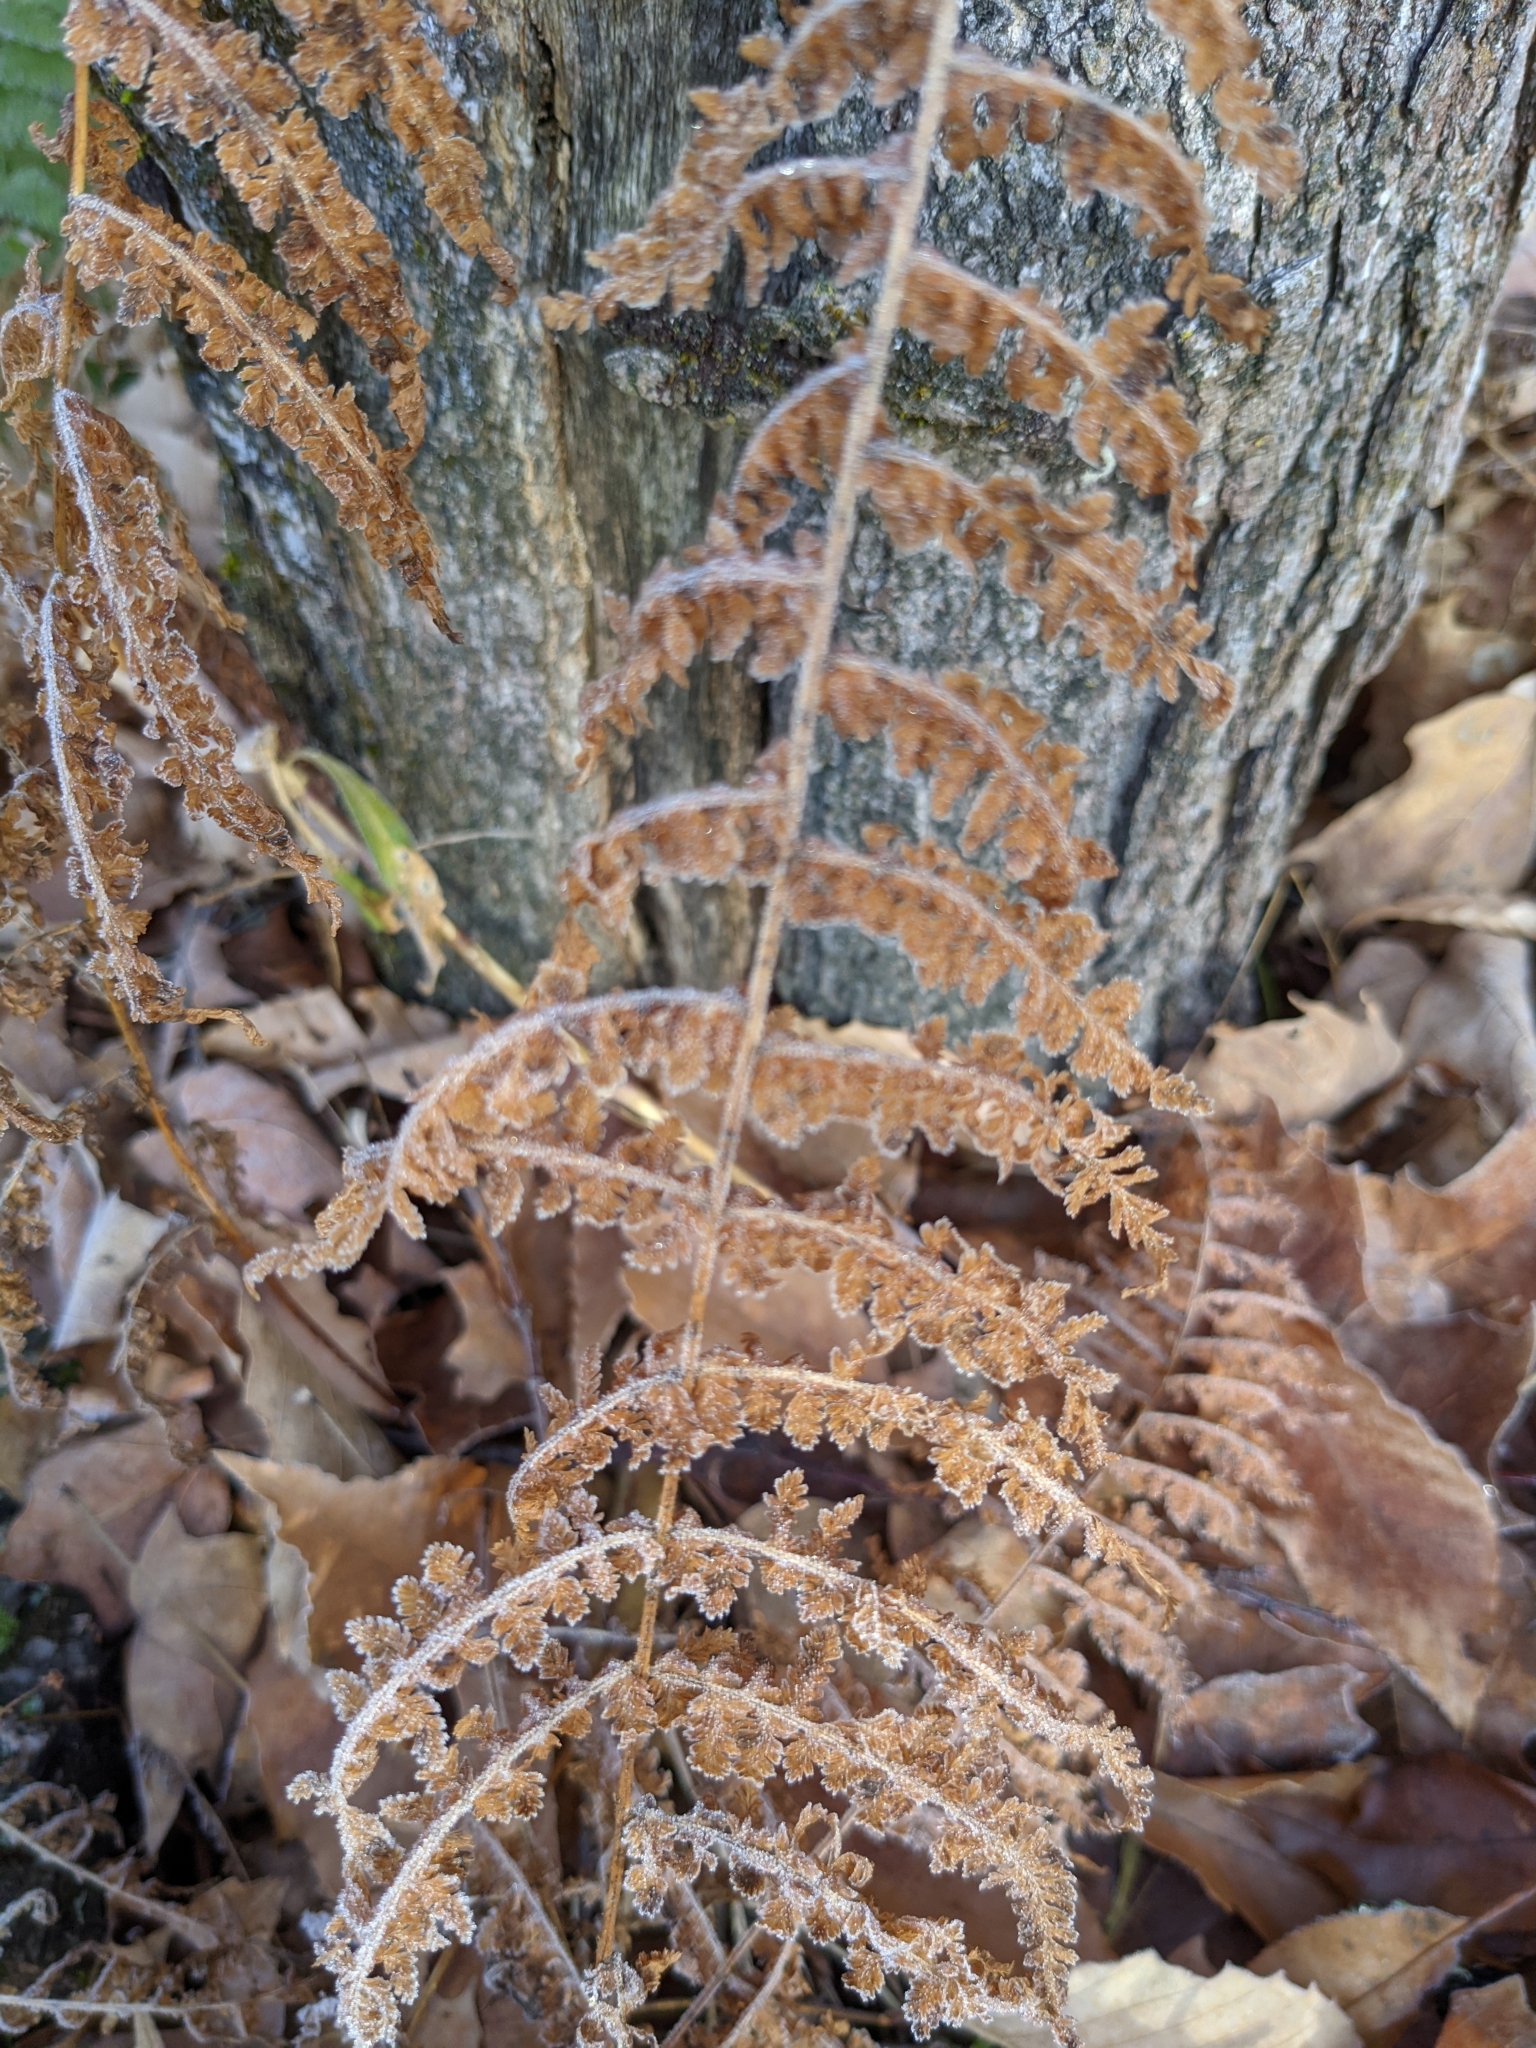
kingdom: Plantae
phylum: Tracheophyta
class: Polypodiopsida
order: Polypodiales
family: Dennstaedtiaceae
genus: Sitobolium
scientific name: Sitobolium punctilobum
